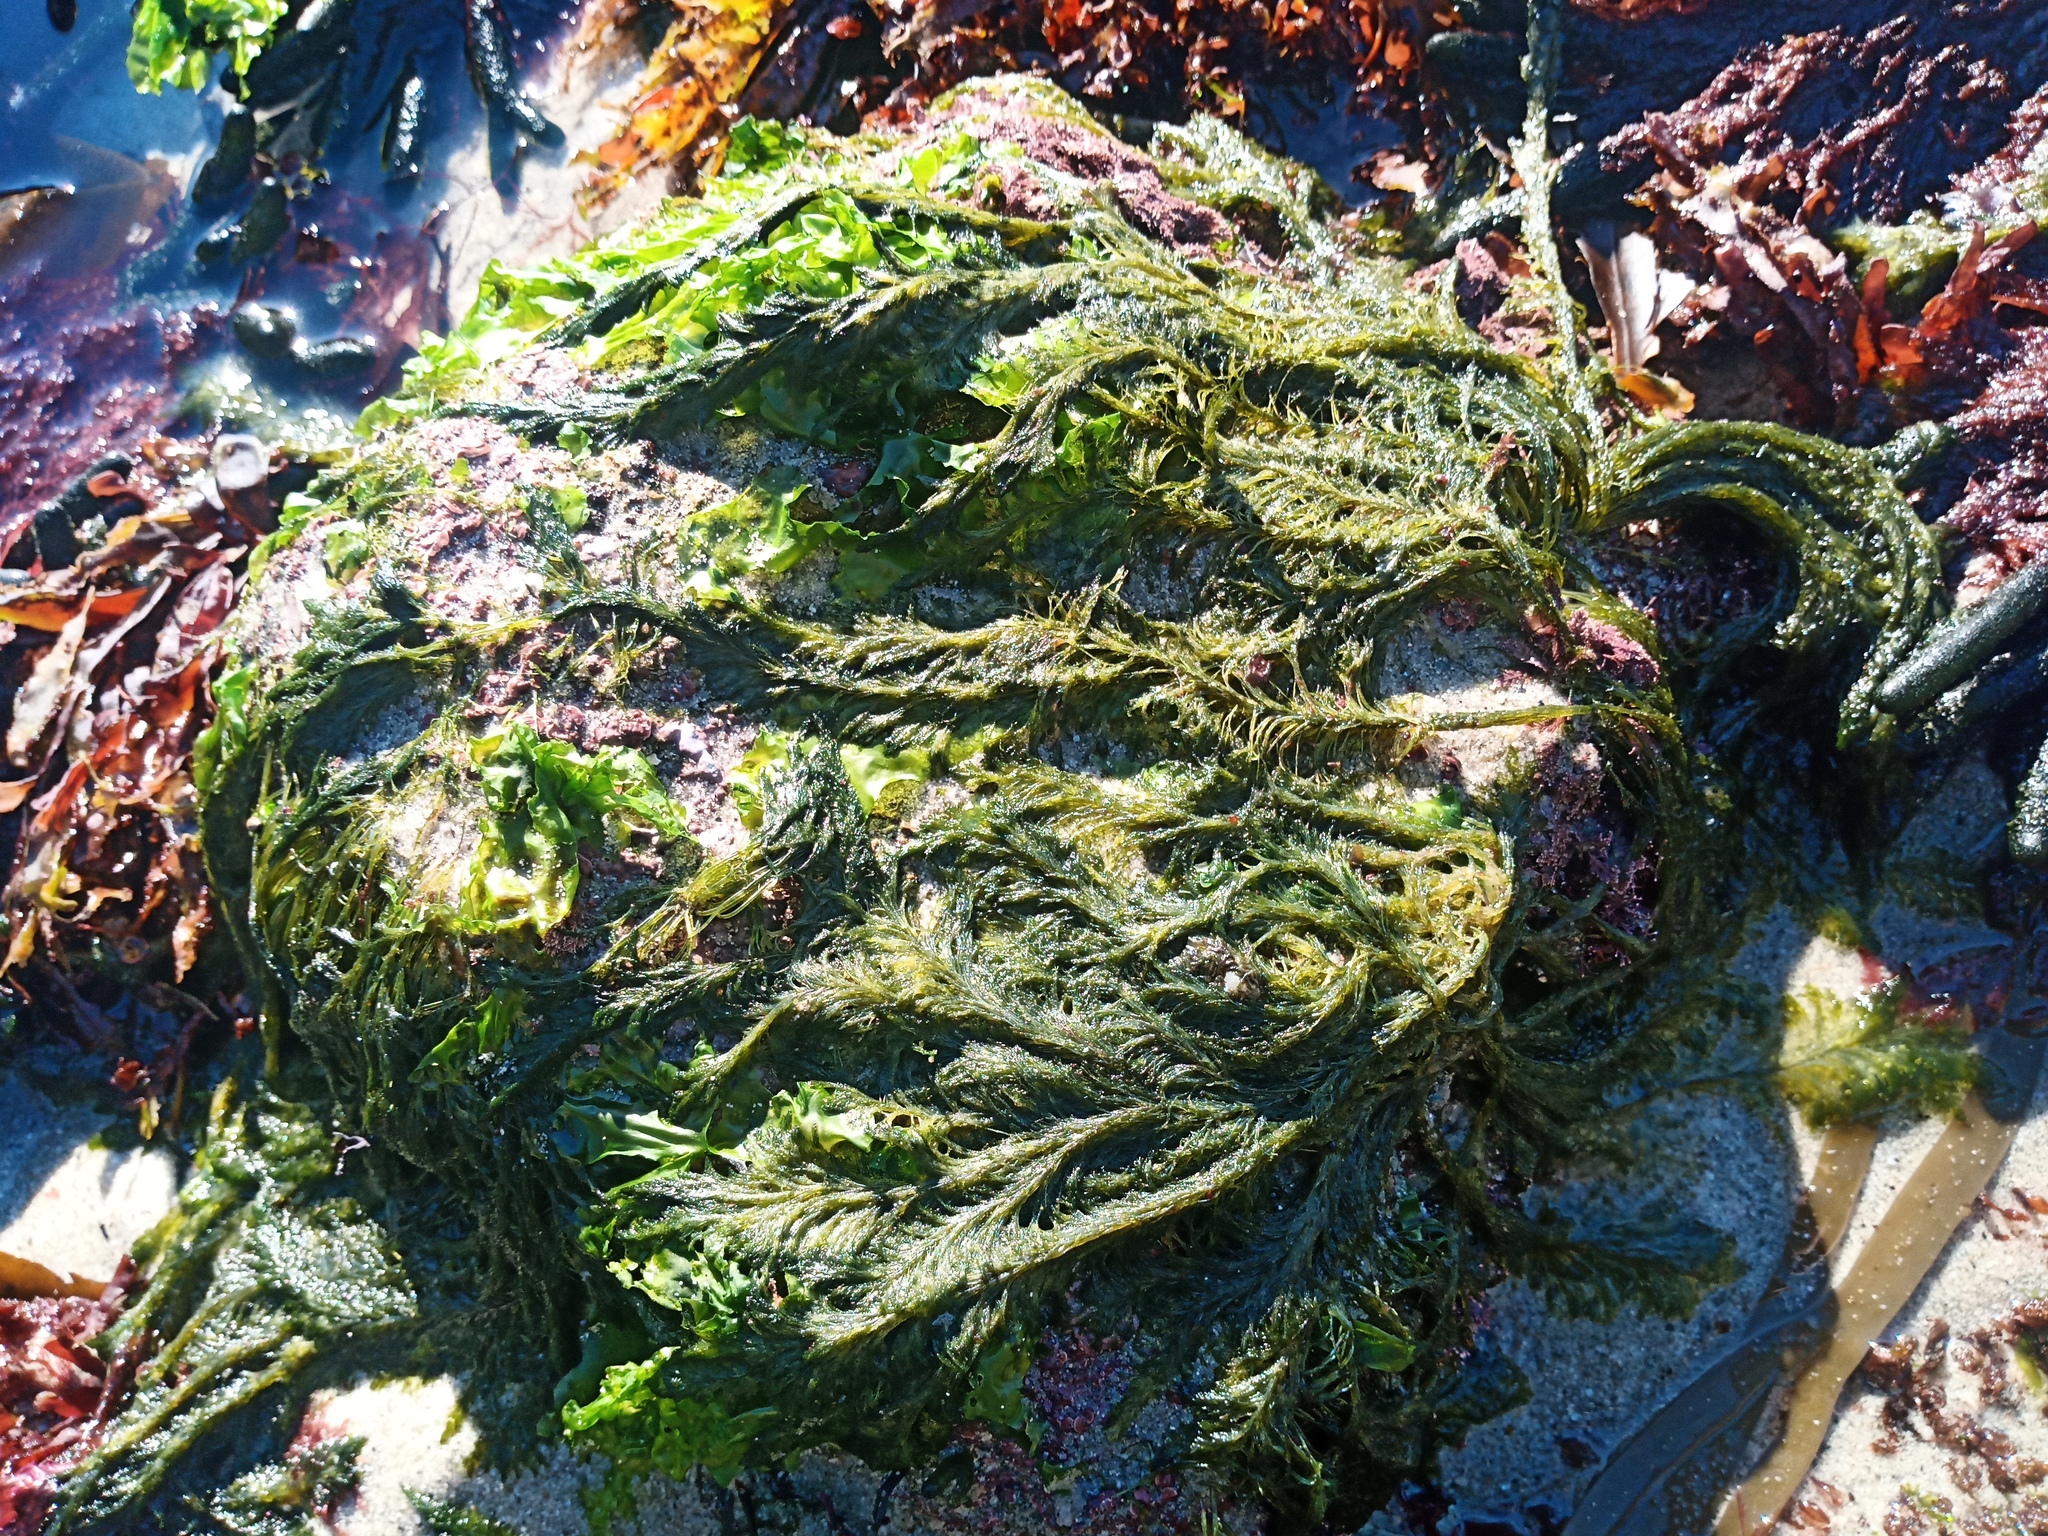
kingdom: Plantae
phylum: Chlorophyta
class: Ulvophyceae
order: Bryopsidales
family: Bryopsidaceae
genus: Bryopsis
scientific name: Bryopsis vestita
